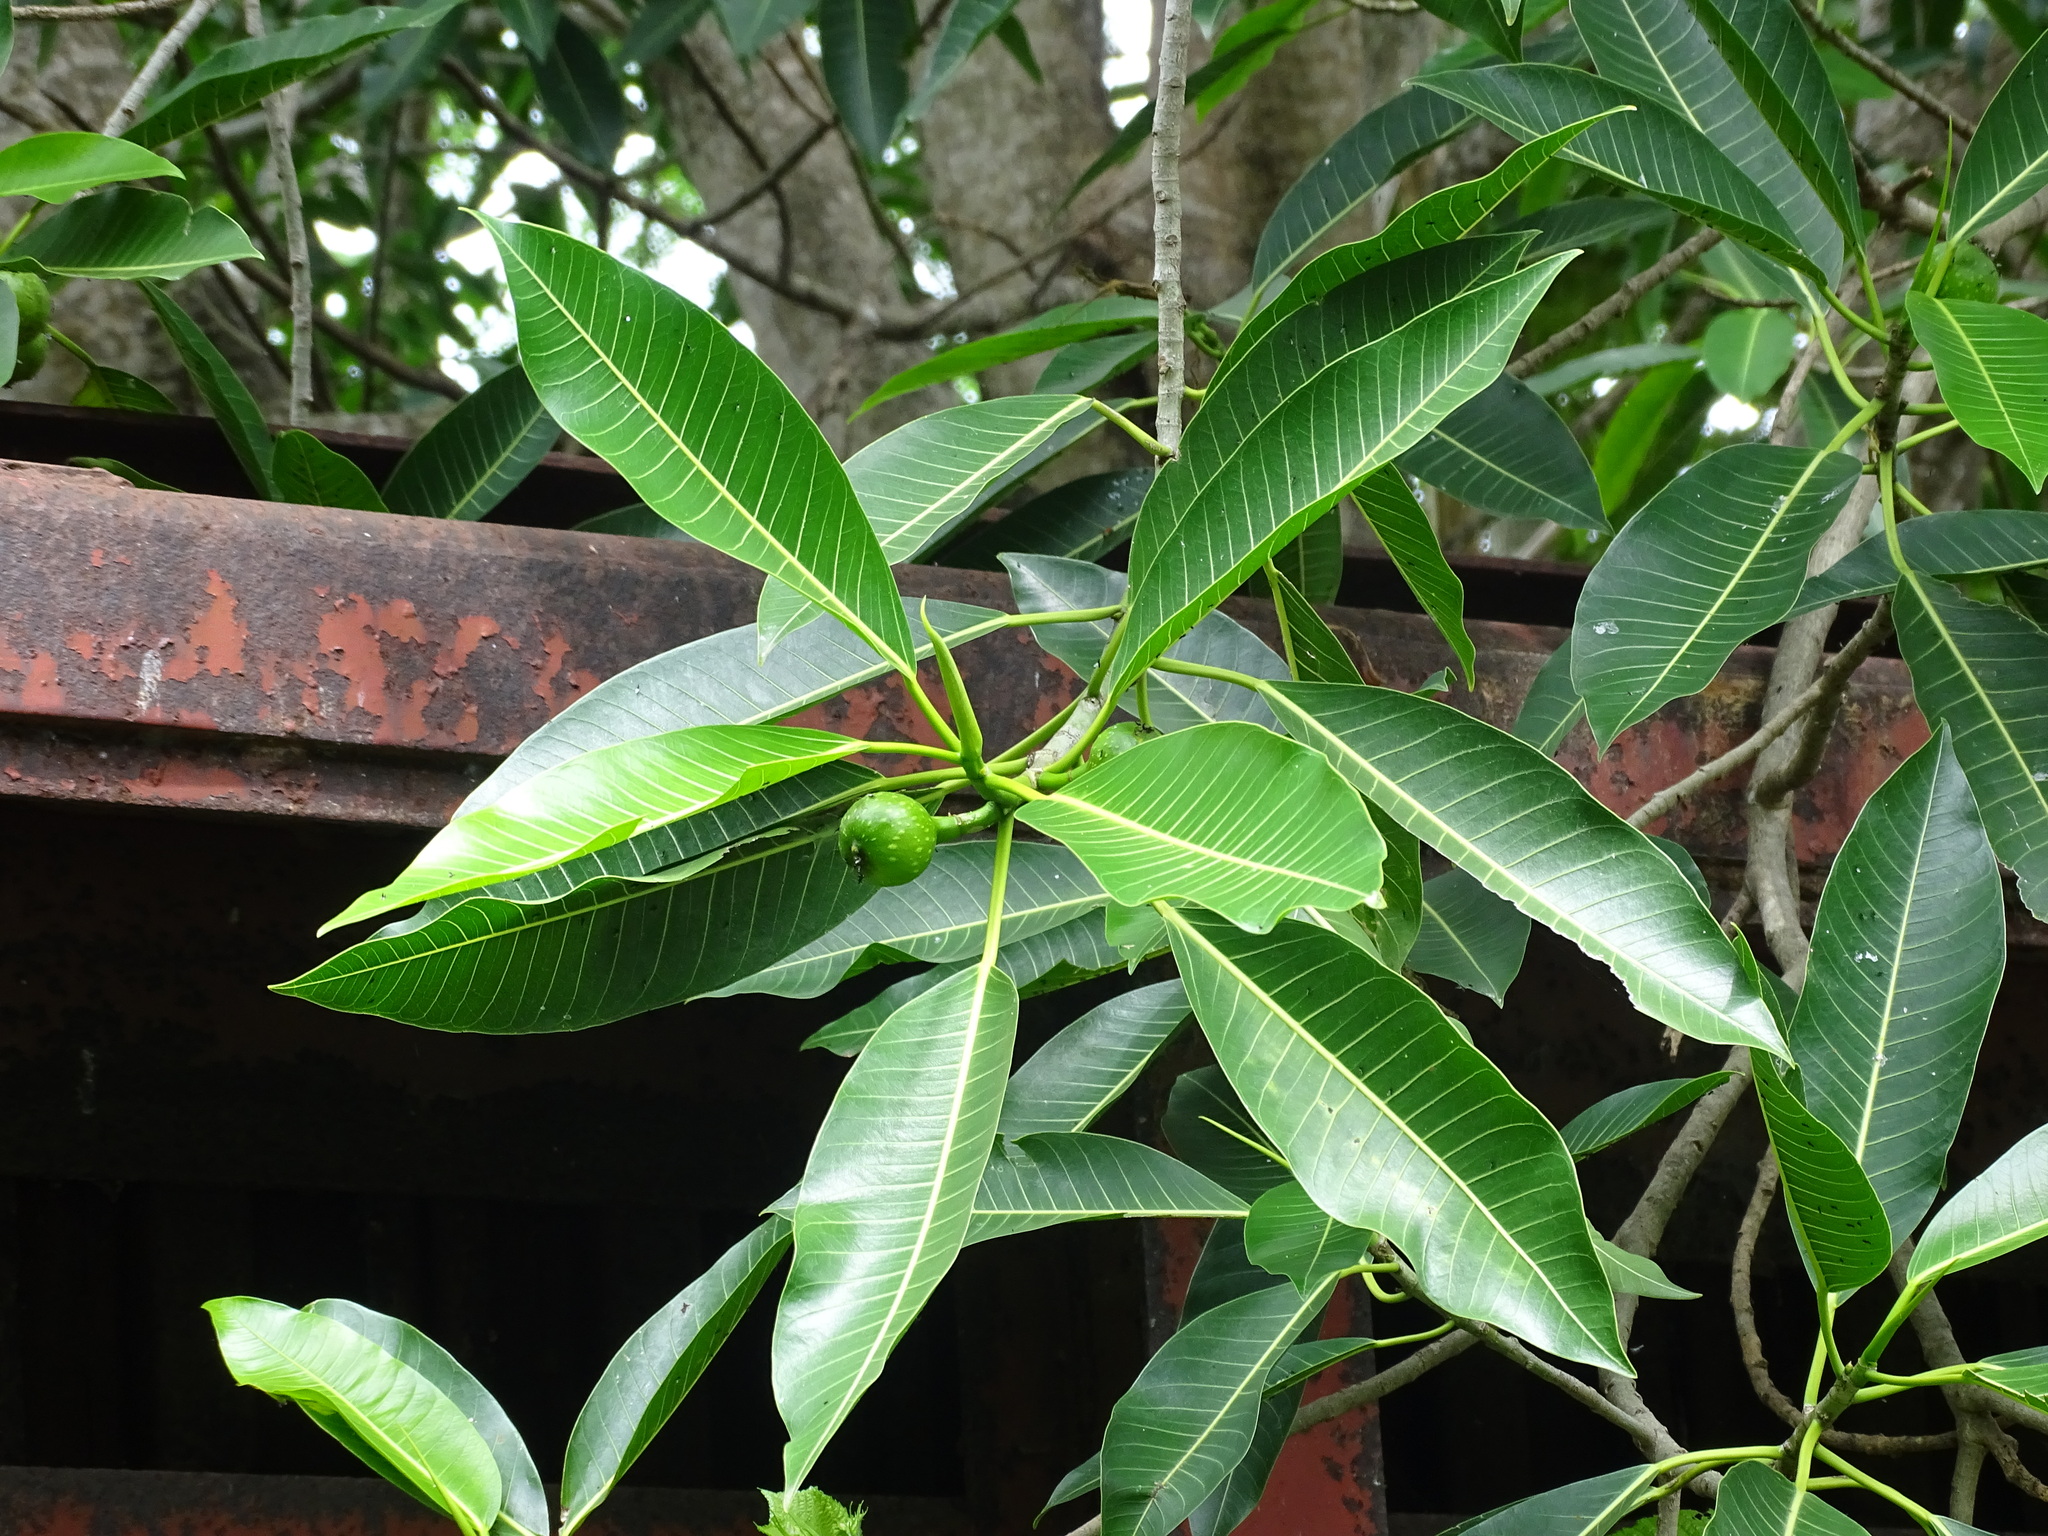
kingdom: Plantae
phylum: Tracheophyta
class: Magnoliopsida
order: Rosales
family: Moraceae
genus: Ficus
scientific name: Ficus insipida
